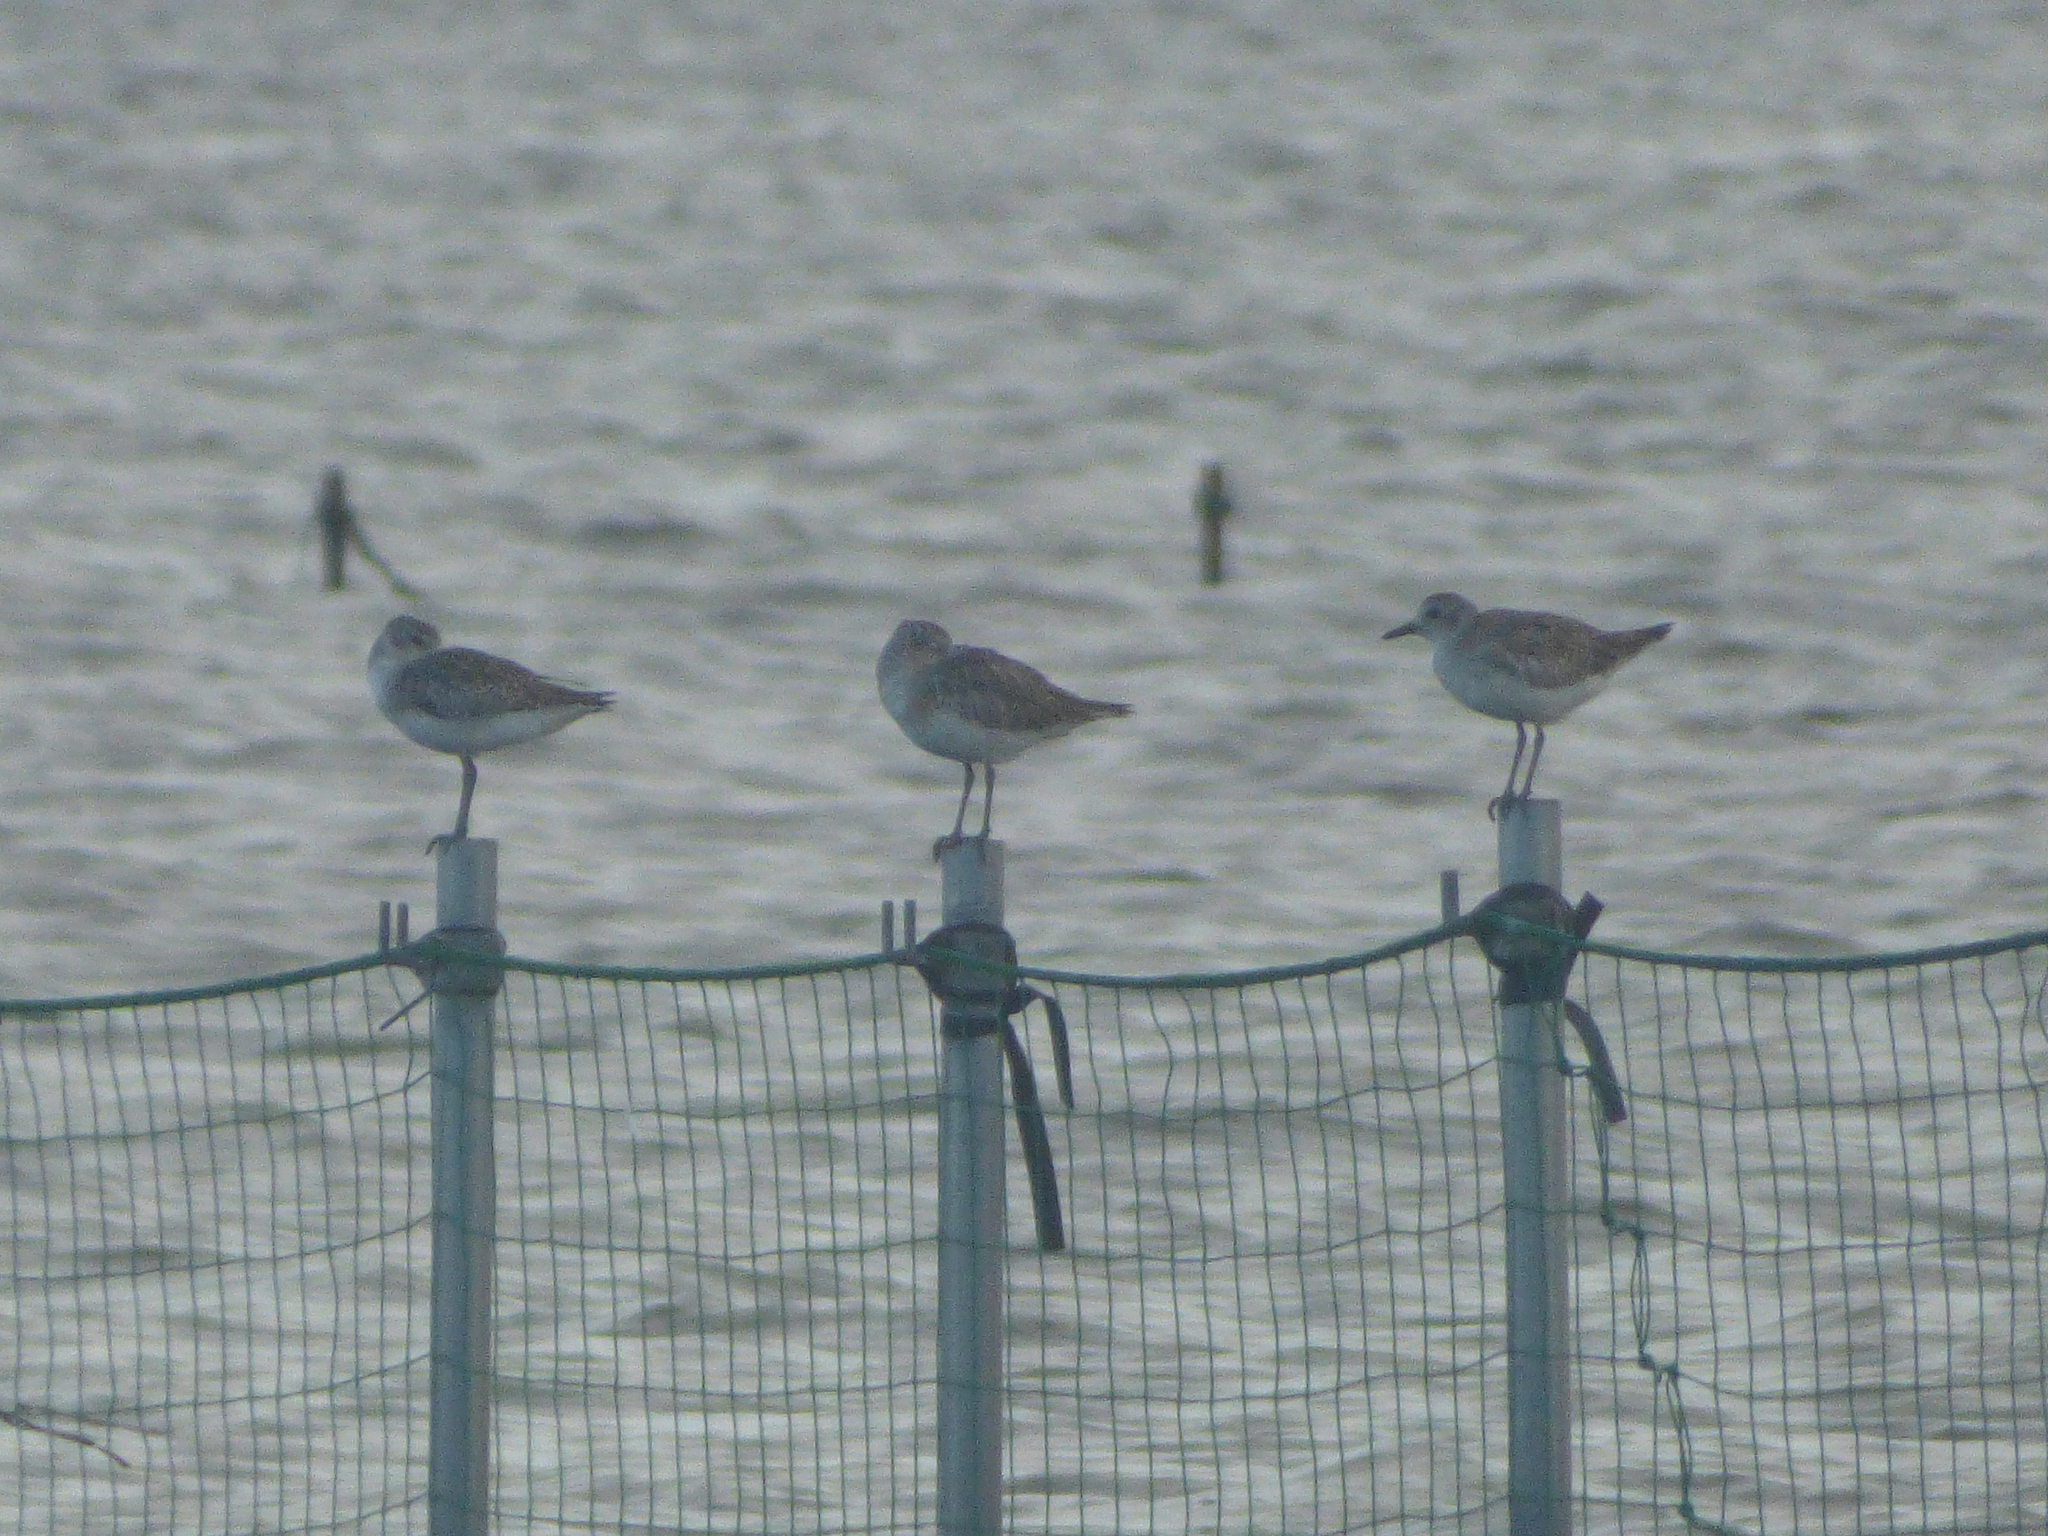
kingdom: Animalia
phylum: Chordata
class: Aves
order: Charadriiformes
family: Charadriidae
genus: Pluvialis
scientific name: Pluvialis squatarola
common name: Grey plover
